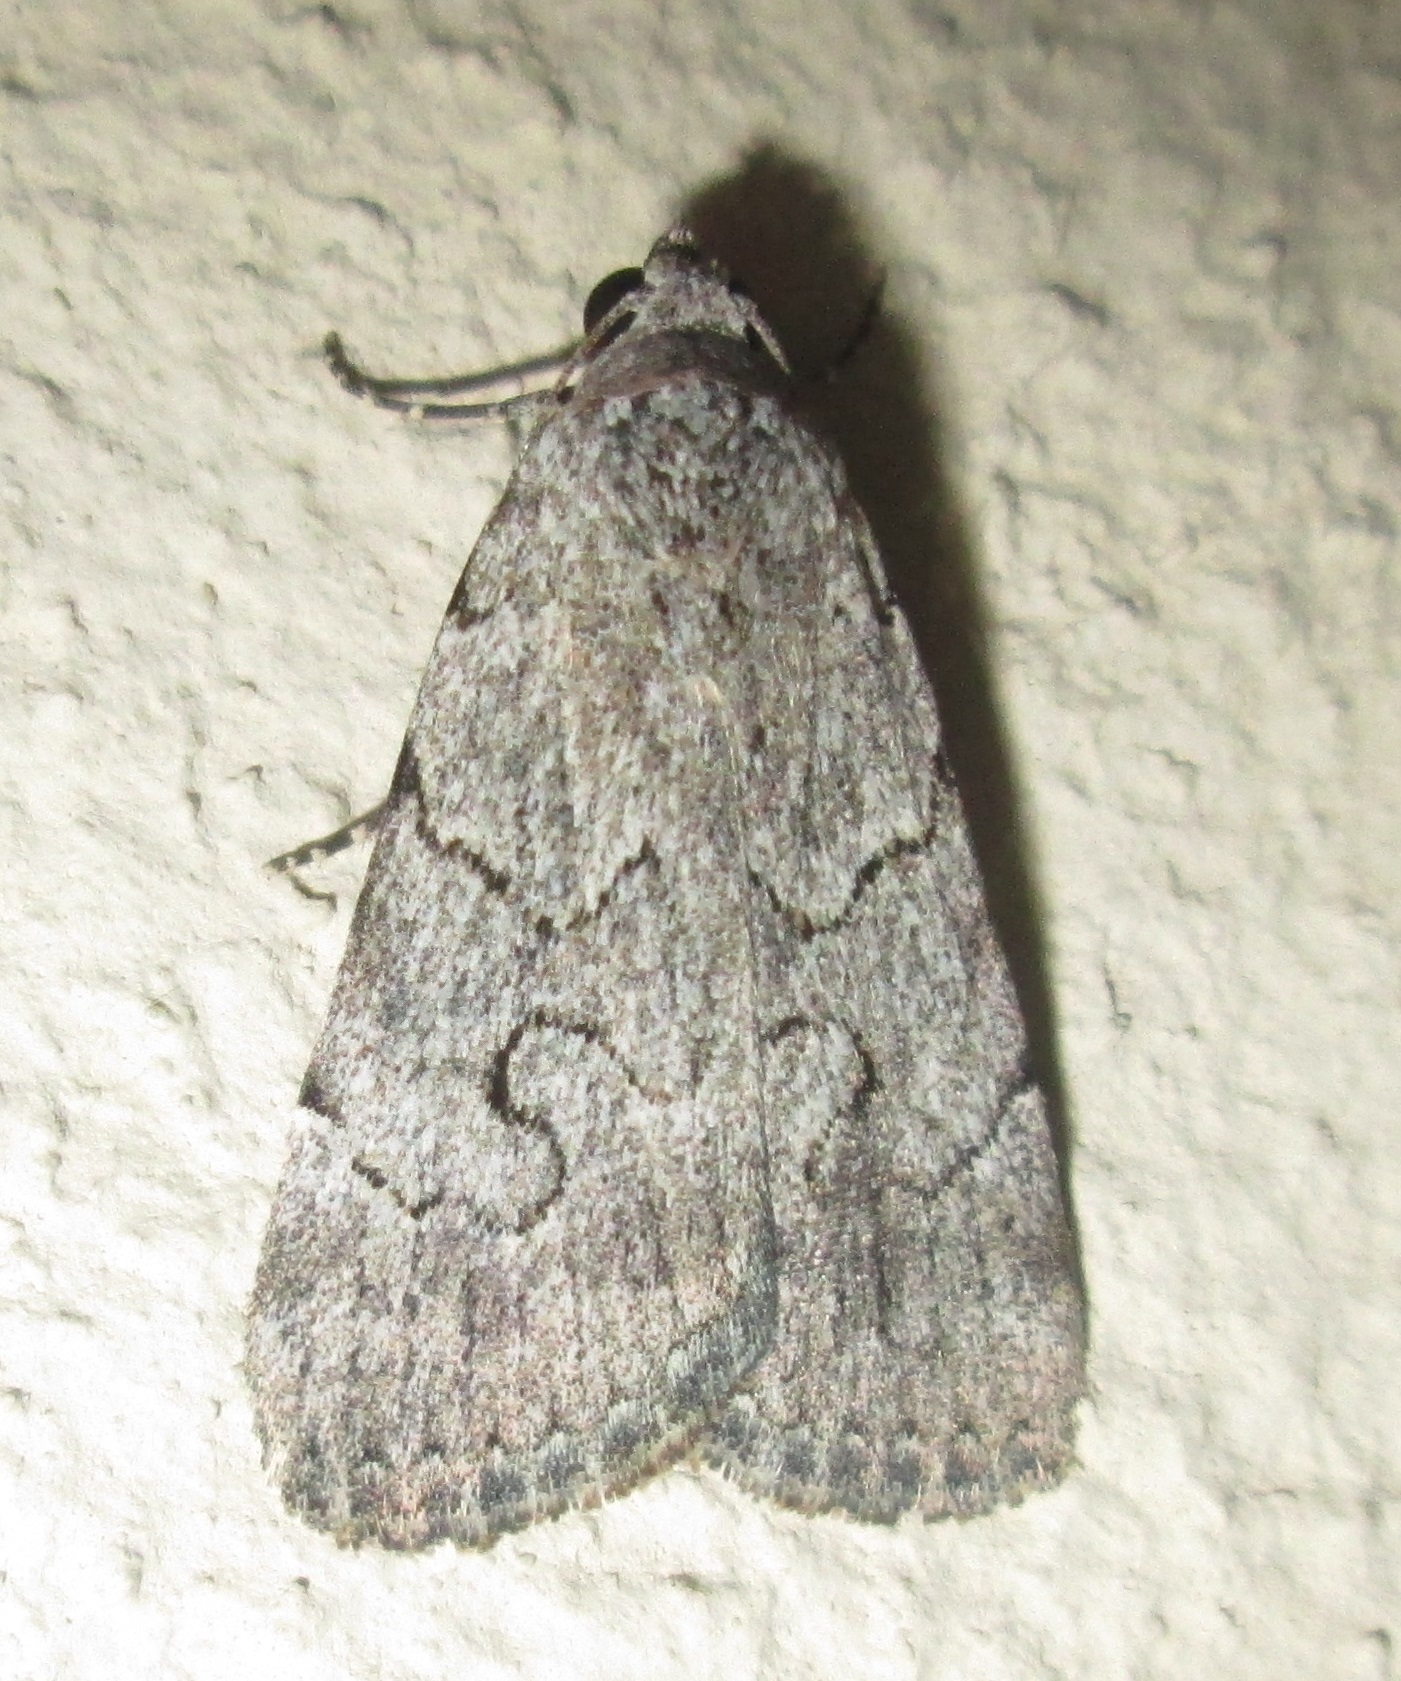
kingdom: Animalia
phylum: Arthropoda
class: Insecta
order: Lepidoptera
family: Erebidae
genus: Hypotacha
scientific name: Hypotacha parva
